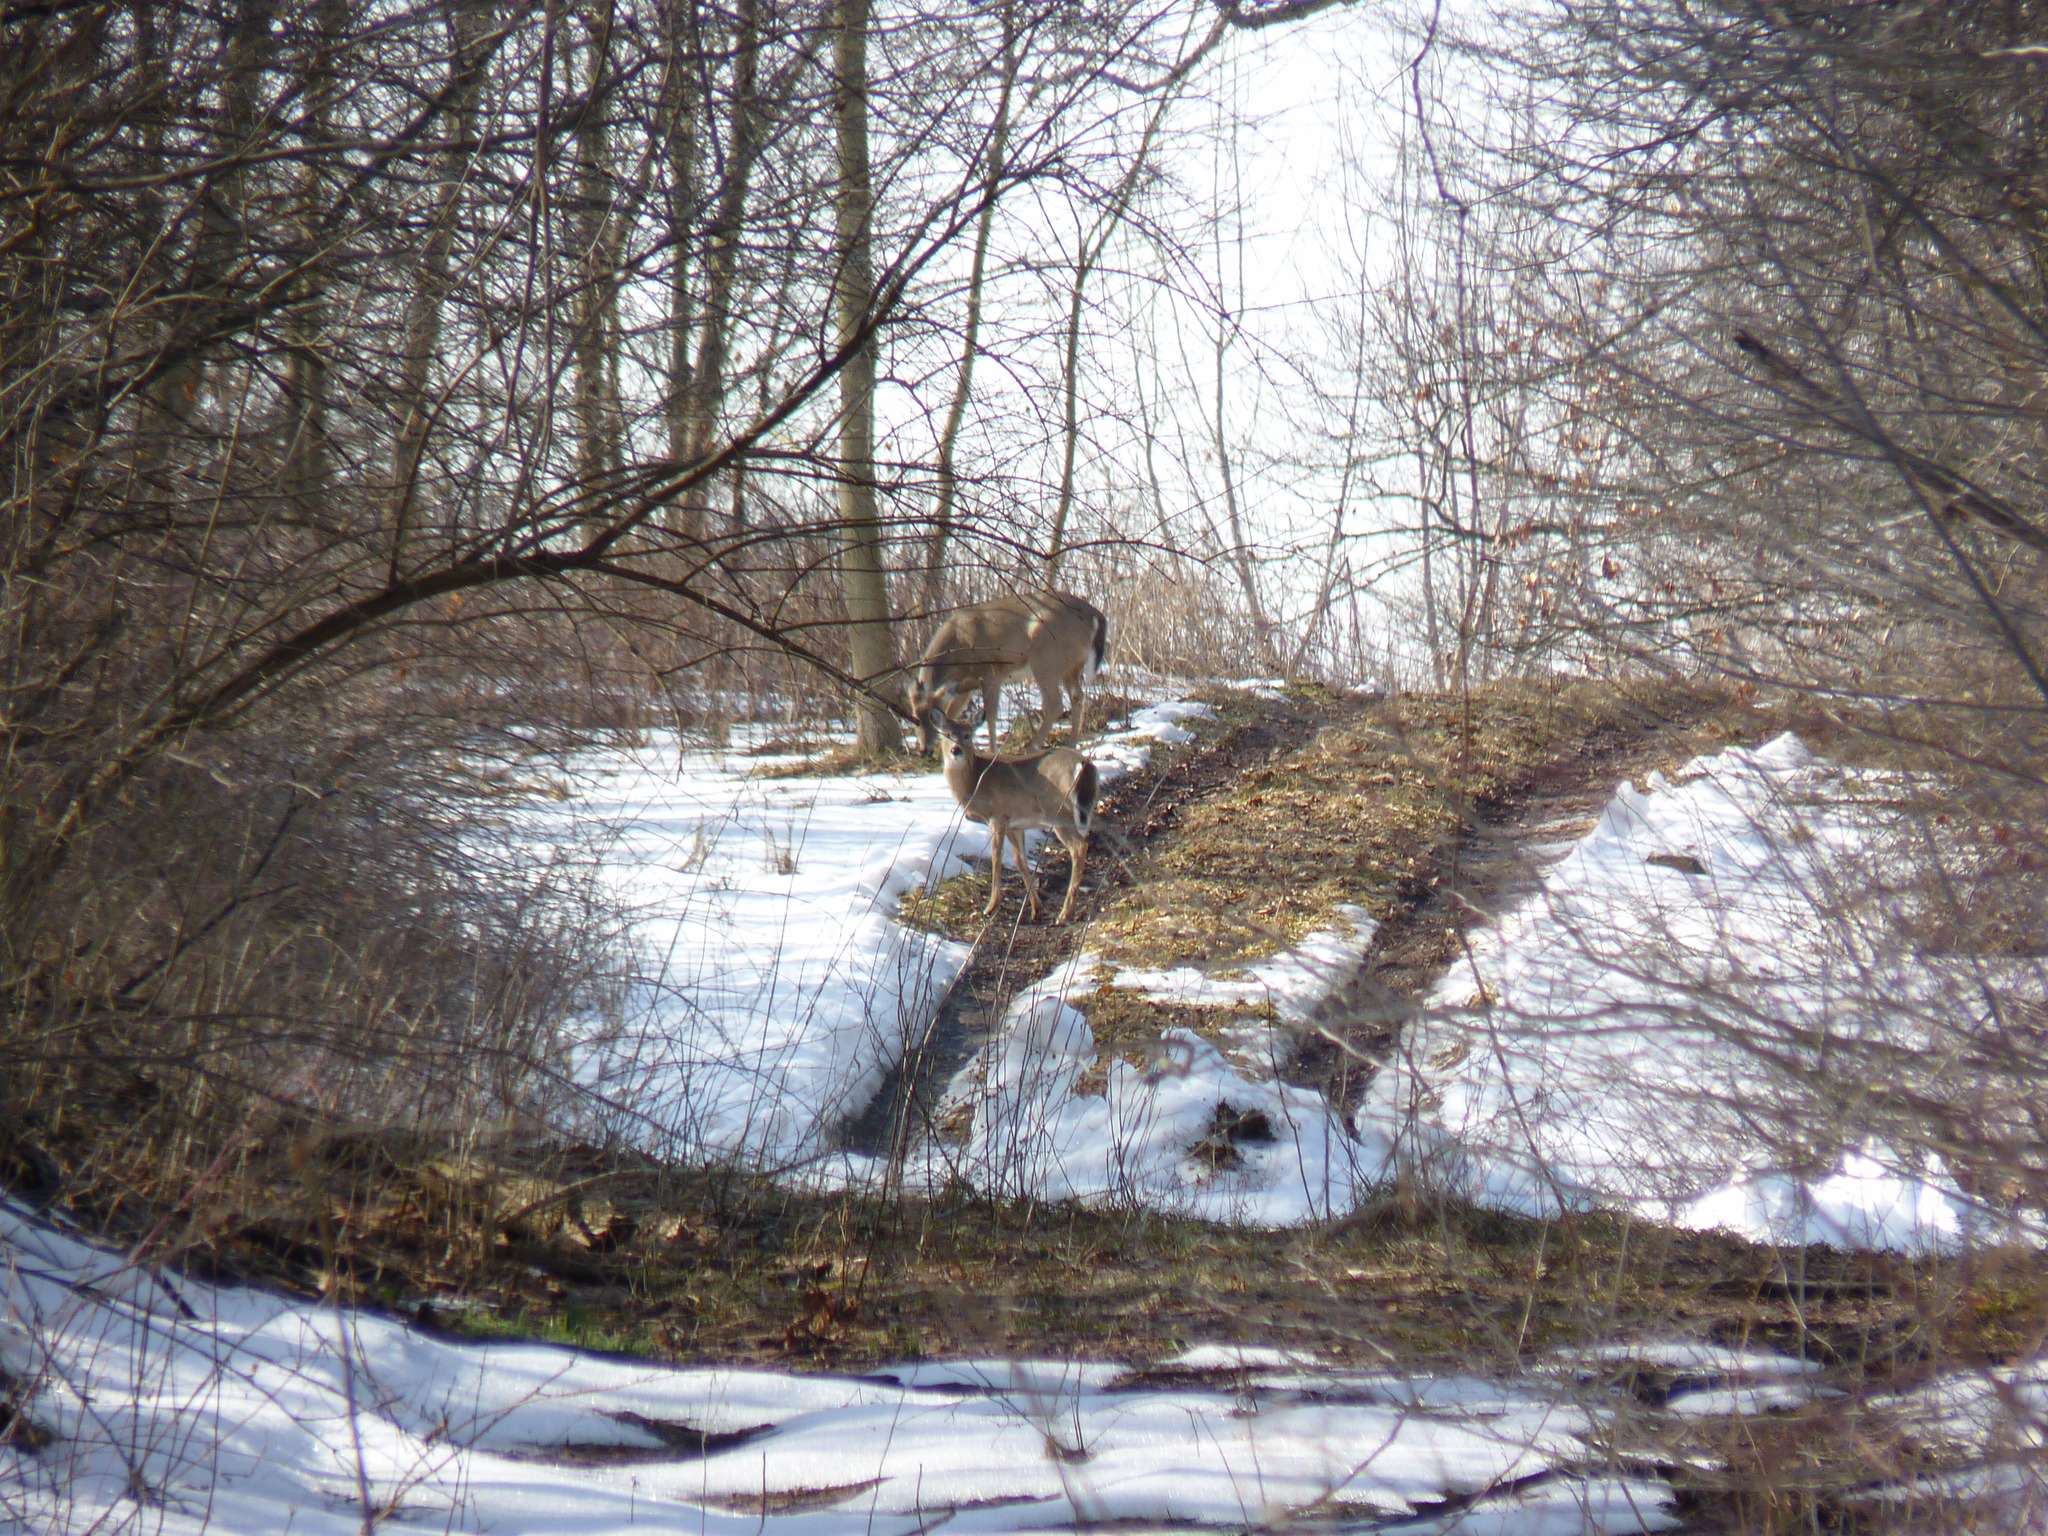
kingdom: Animalia
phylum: Chordata
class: Mammalia
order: Artiodactyla
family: Cervidae
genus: Odocoileus
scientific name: Odocoileus virginianus
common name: White-tailed deer
